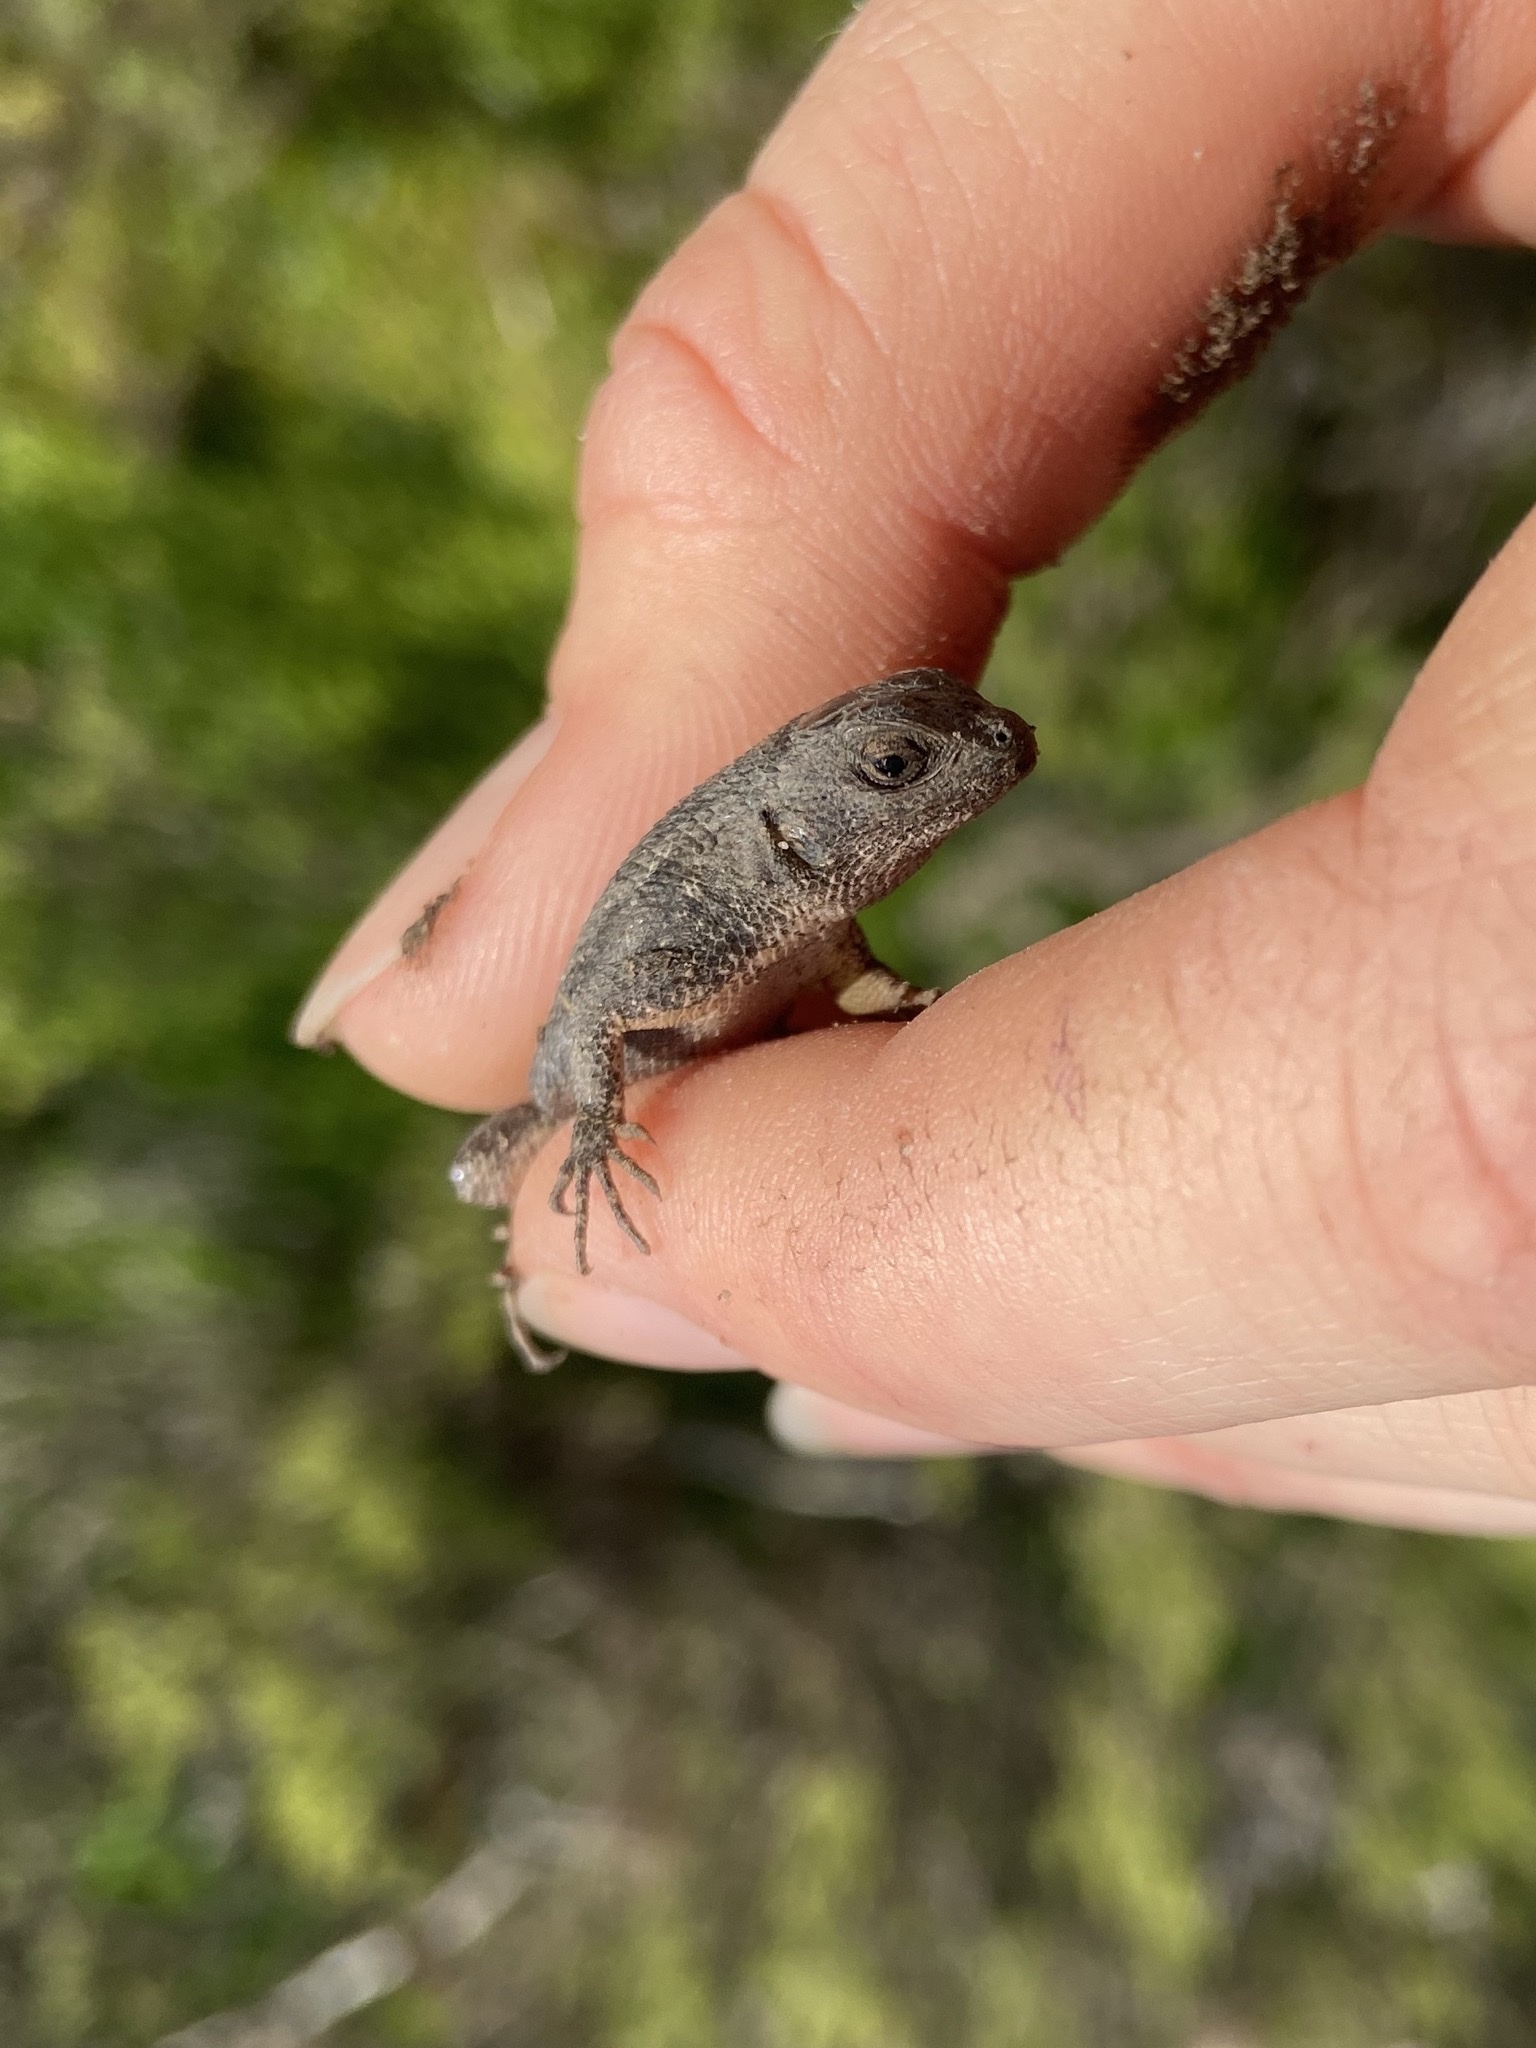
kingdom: Animalia
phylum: Chordata
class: Squamata
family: Phrynosomatidae
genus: Sceloporus
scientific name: Sceloporus occidentalis
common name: Western fence lizard
